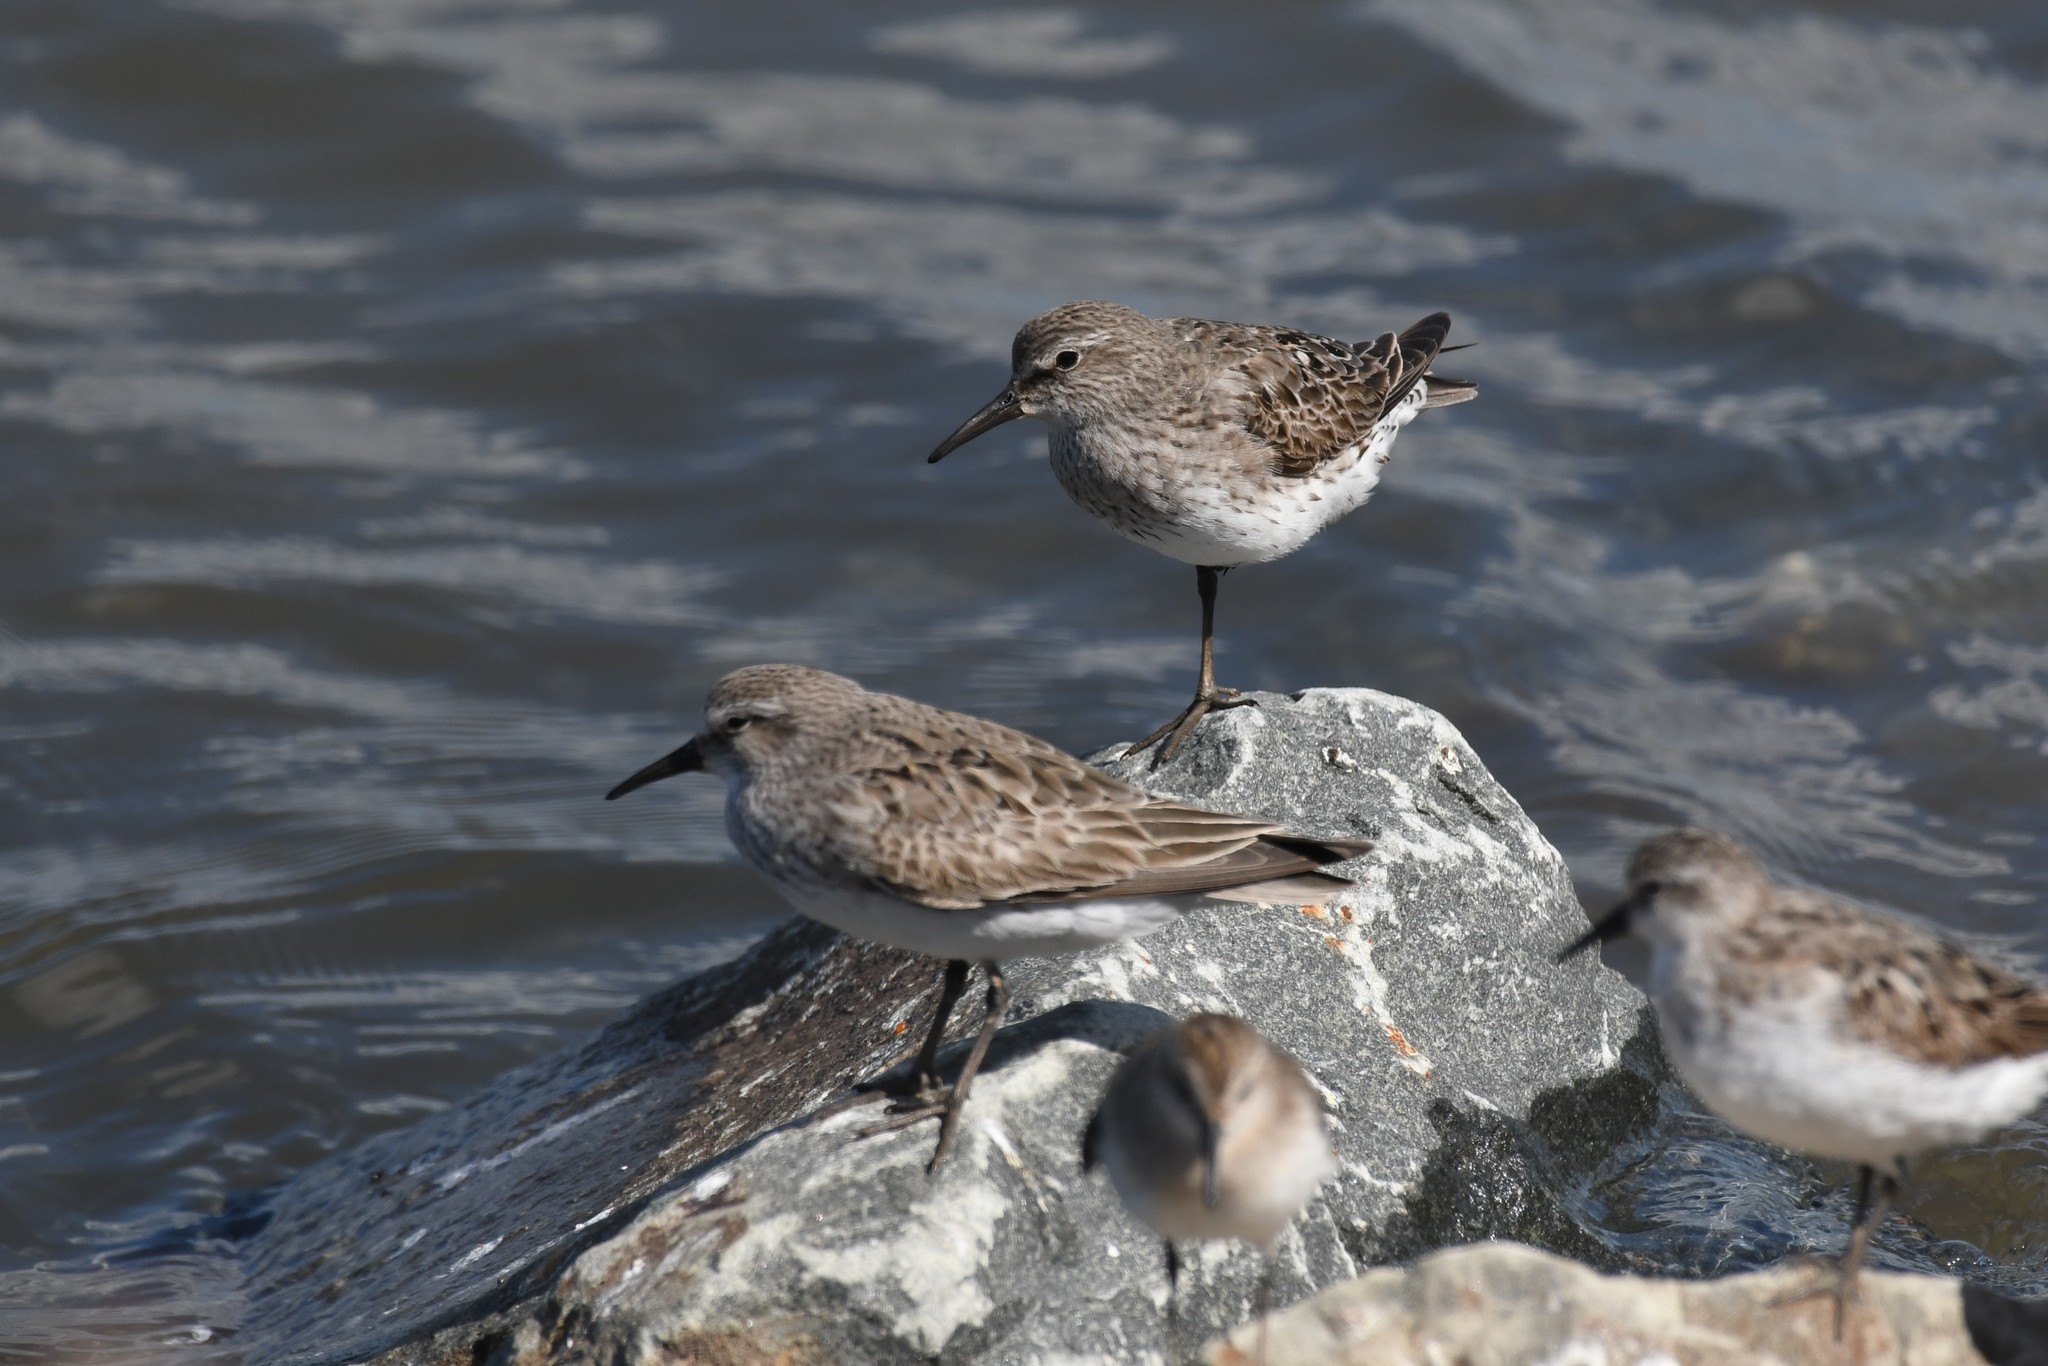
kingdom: Animalia
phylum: Chordata
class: Aves
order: Charadriiformes
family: Scolopacidae
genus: Calidris
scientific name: Calidris fuscicollis
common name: White-rumped sandpiper
